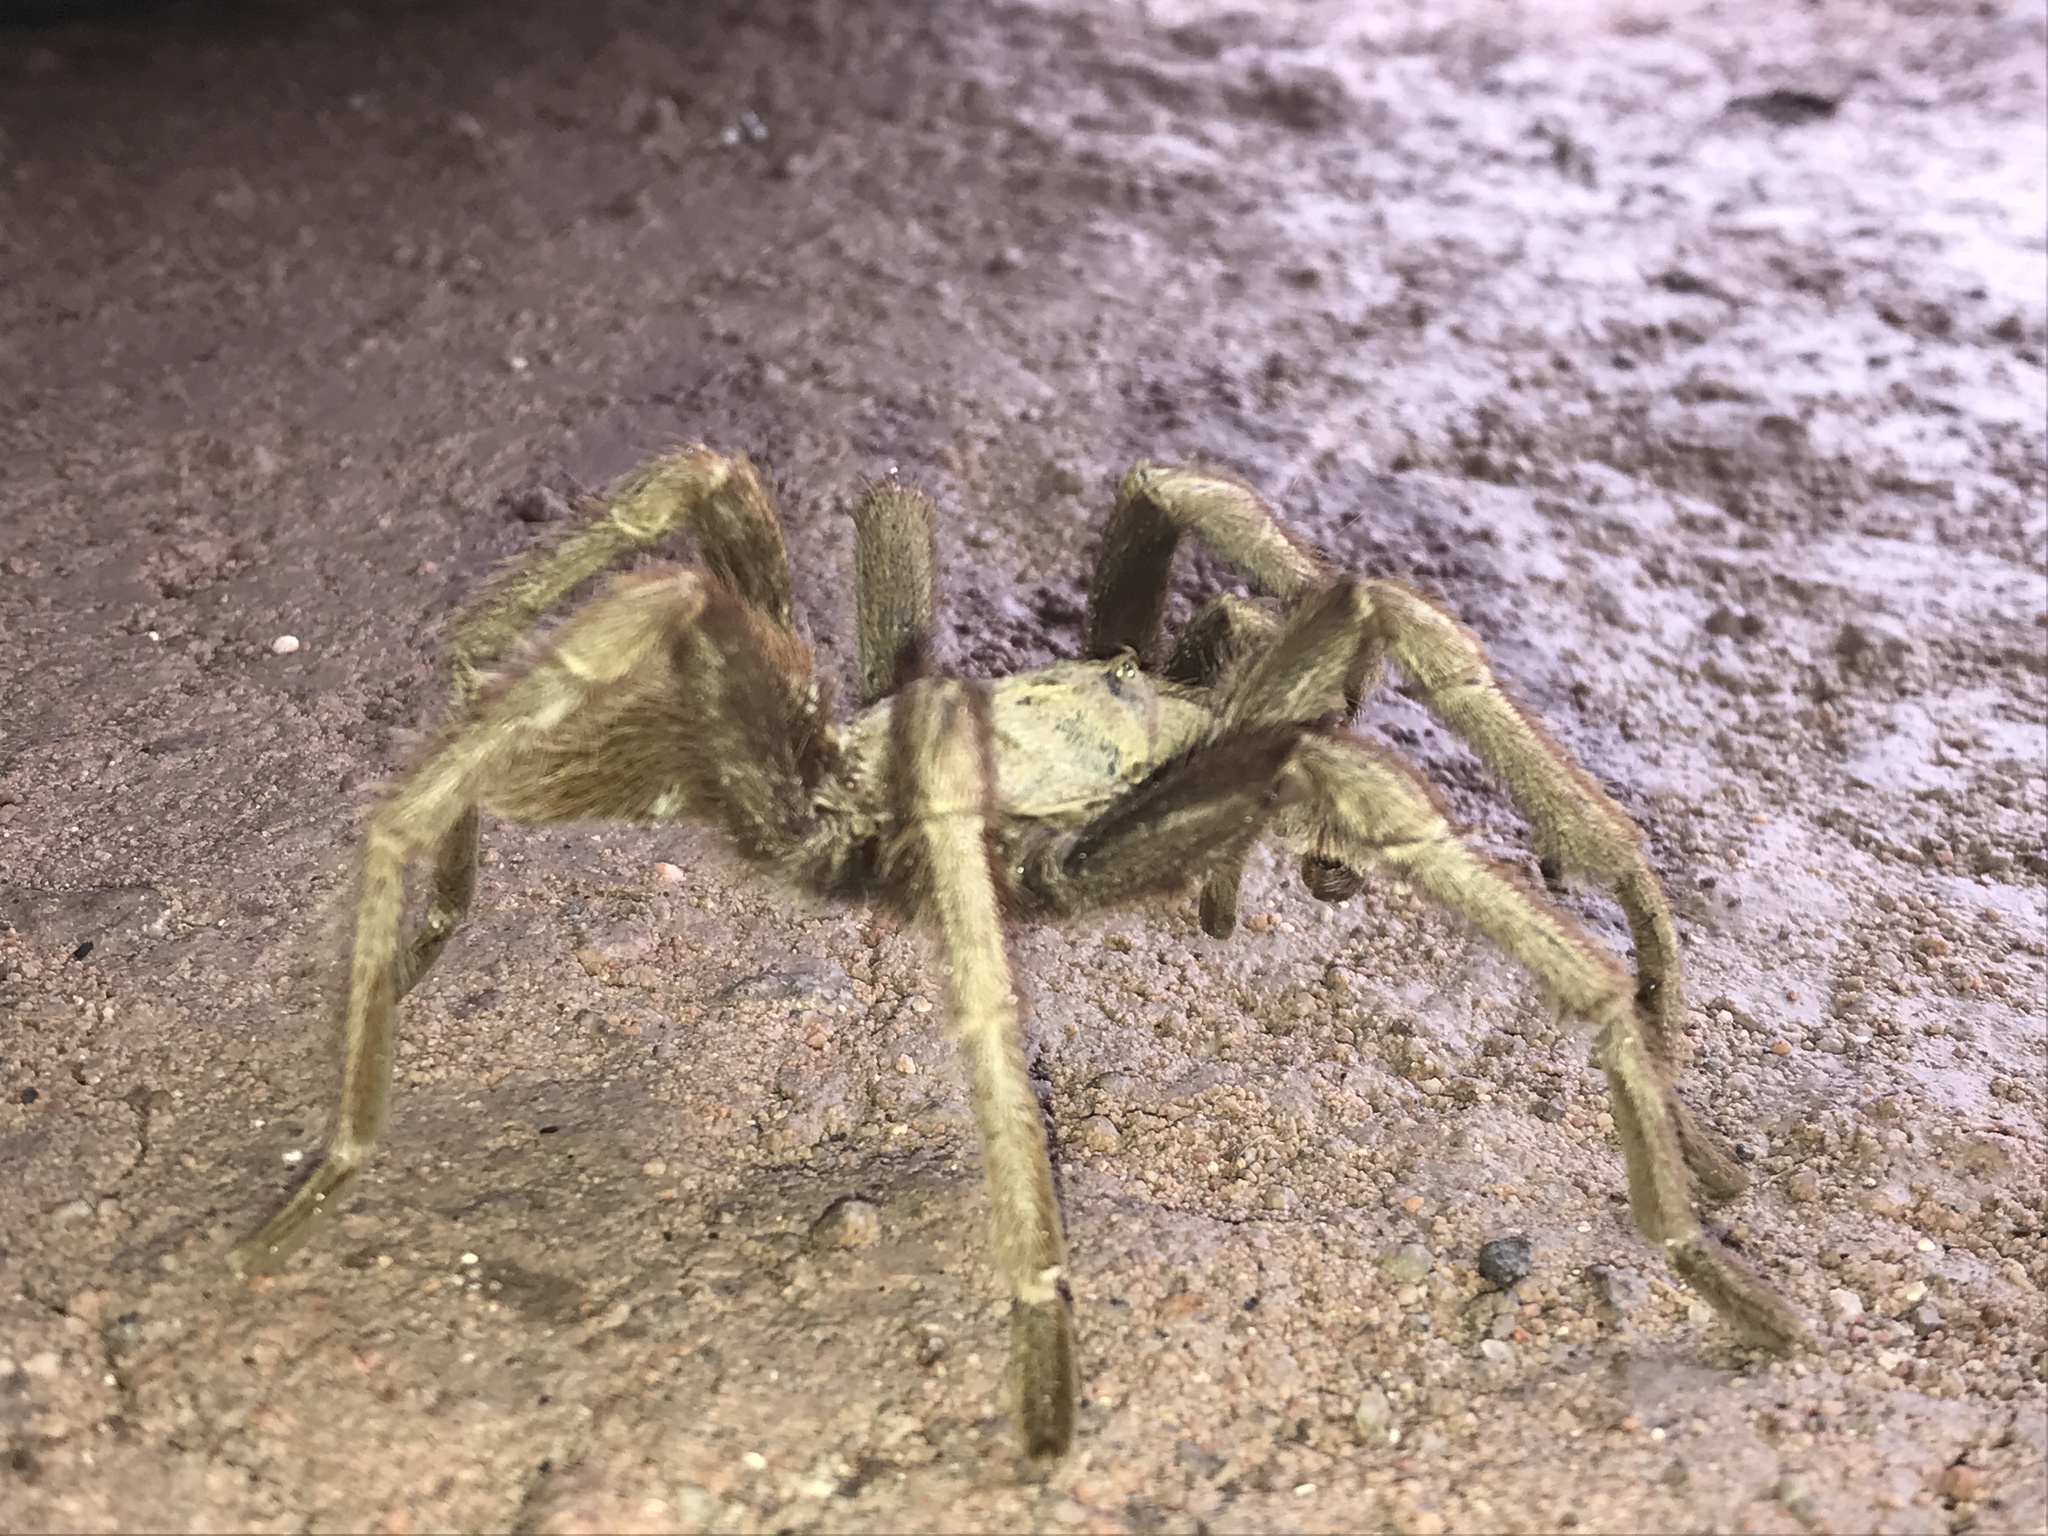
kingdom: Animalia
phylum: Arthropoda
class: Arachnida
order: Araneae
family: Theraphosidae
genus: Aphonopelma
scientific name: Aphonopelma chalcodes
